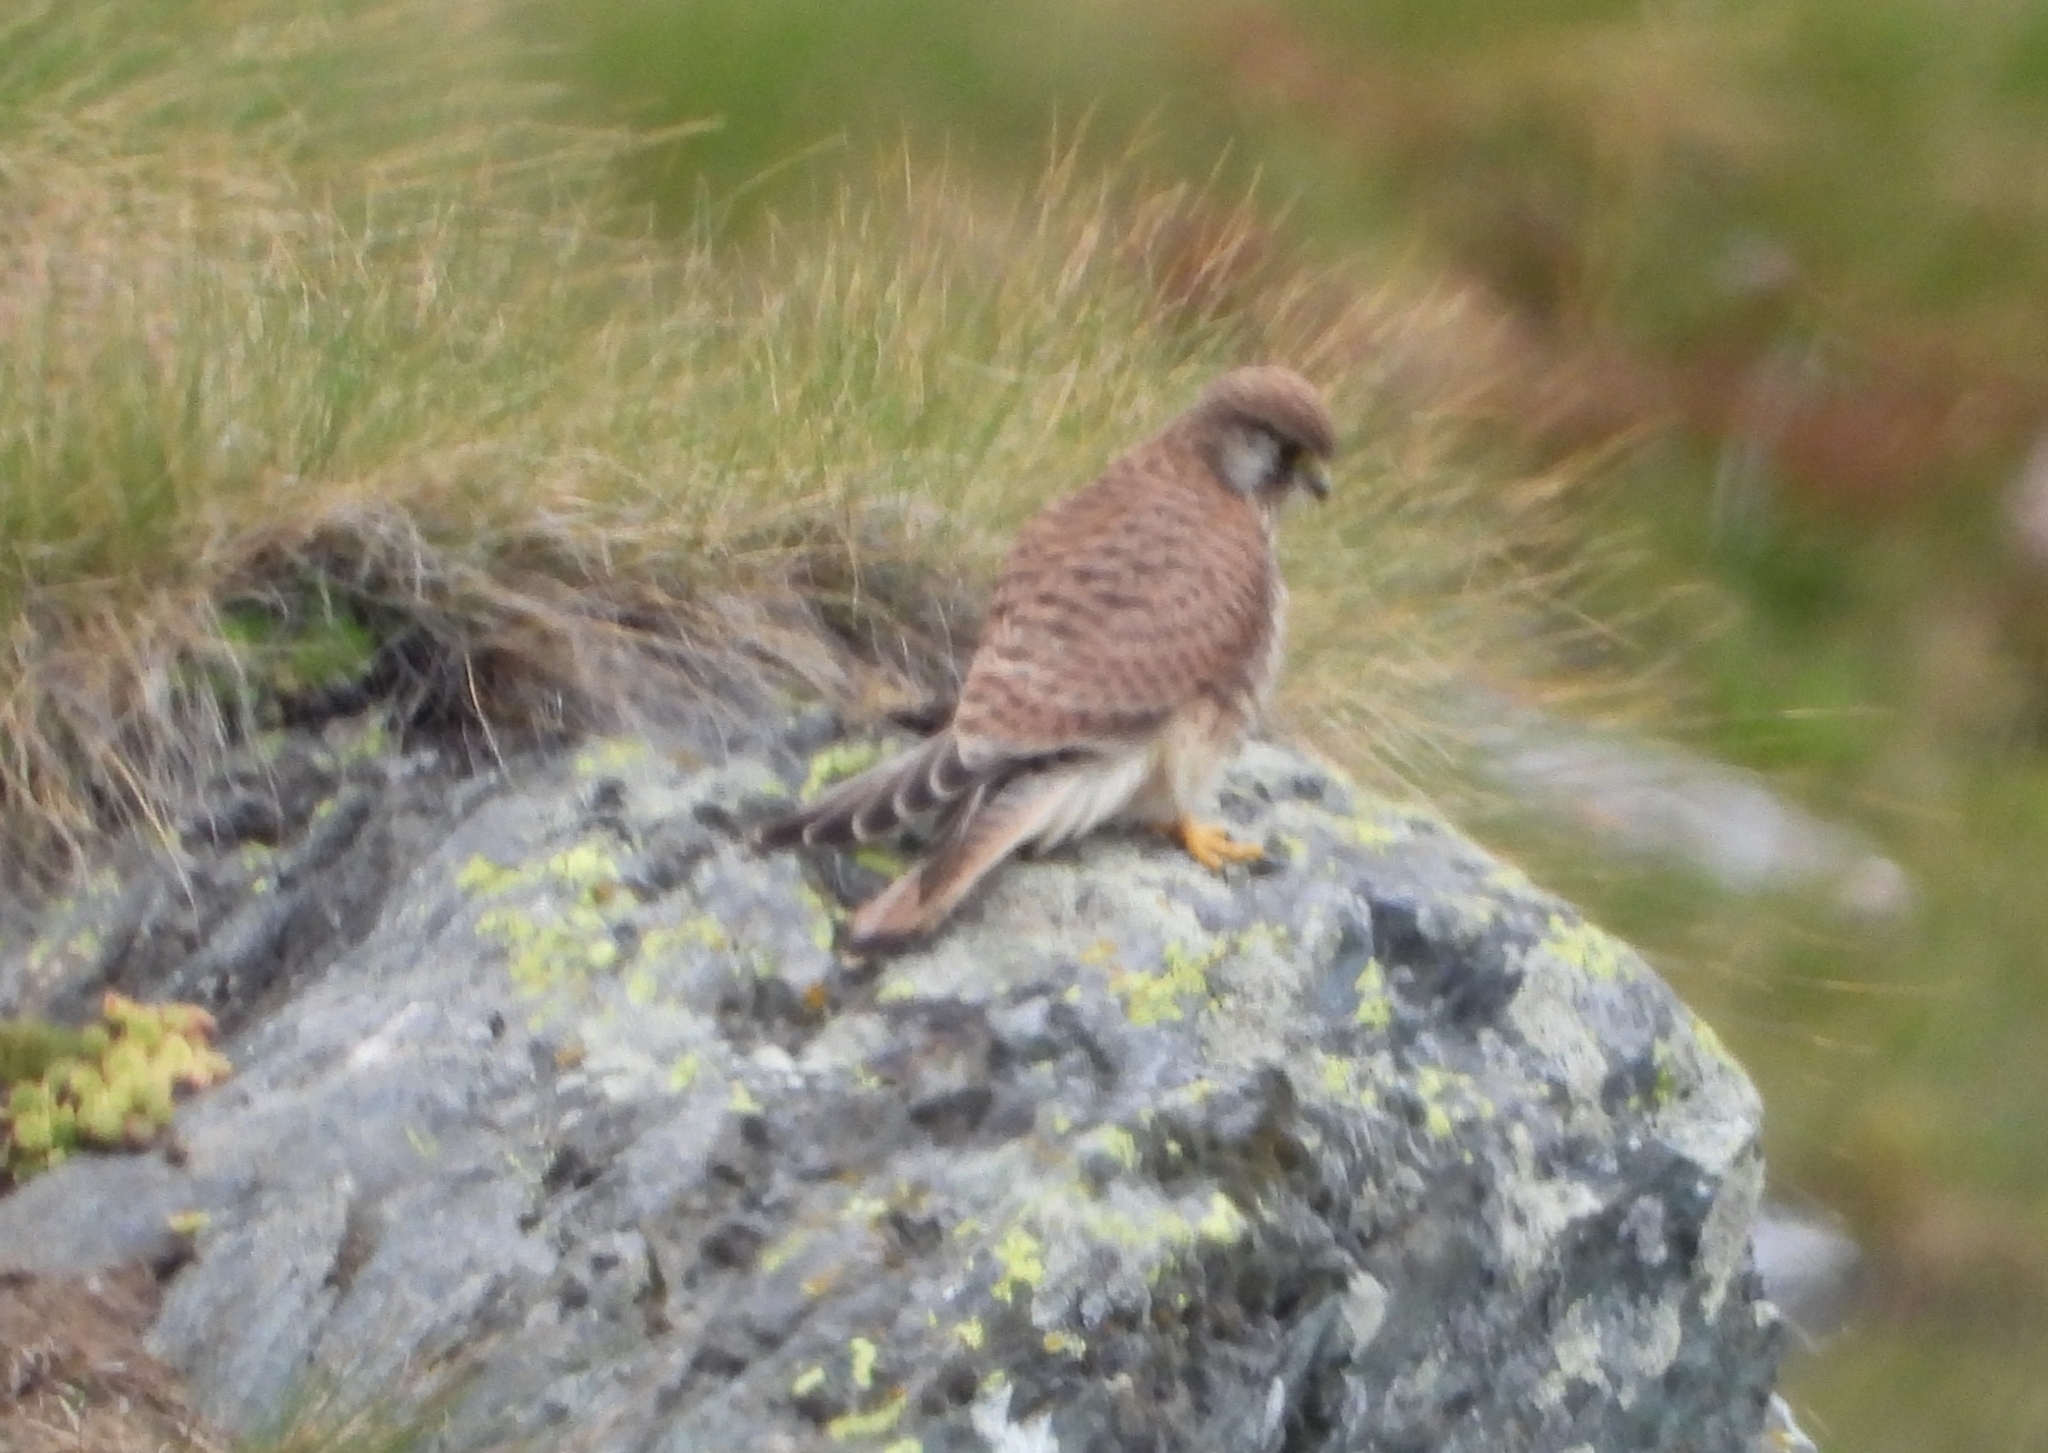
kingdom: Animalia
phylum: Chordata
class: Aves
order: Falconiformes
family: Falconidae
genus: Falco
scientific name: Falco tinnunculus
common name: Common kestrel
